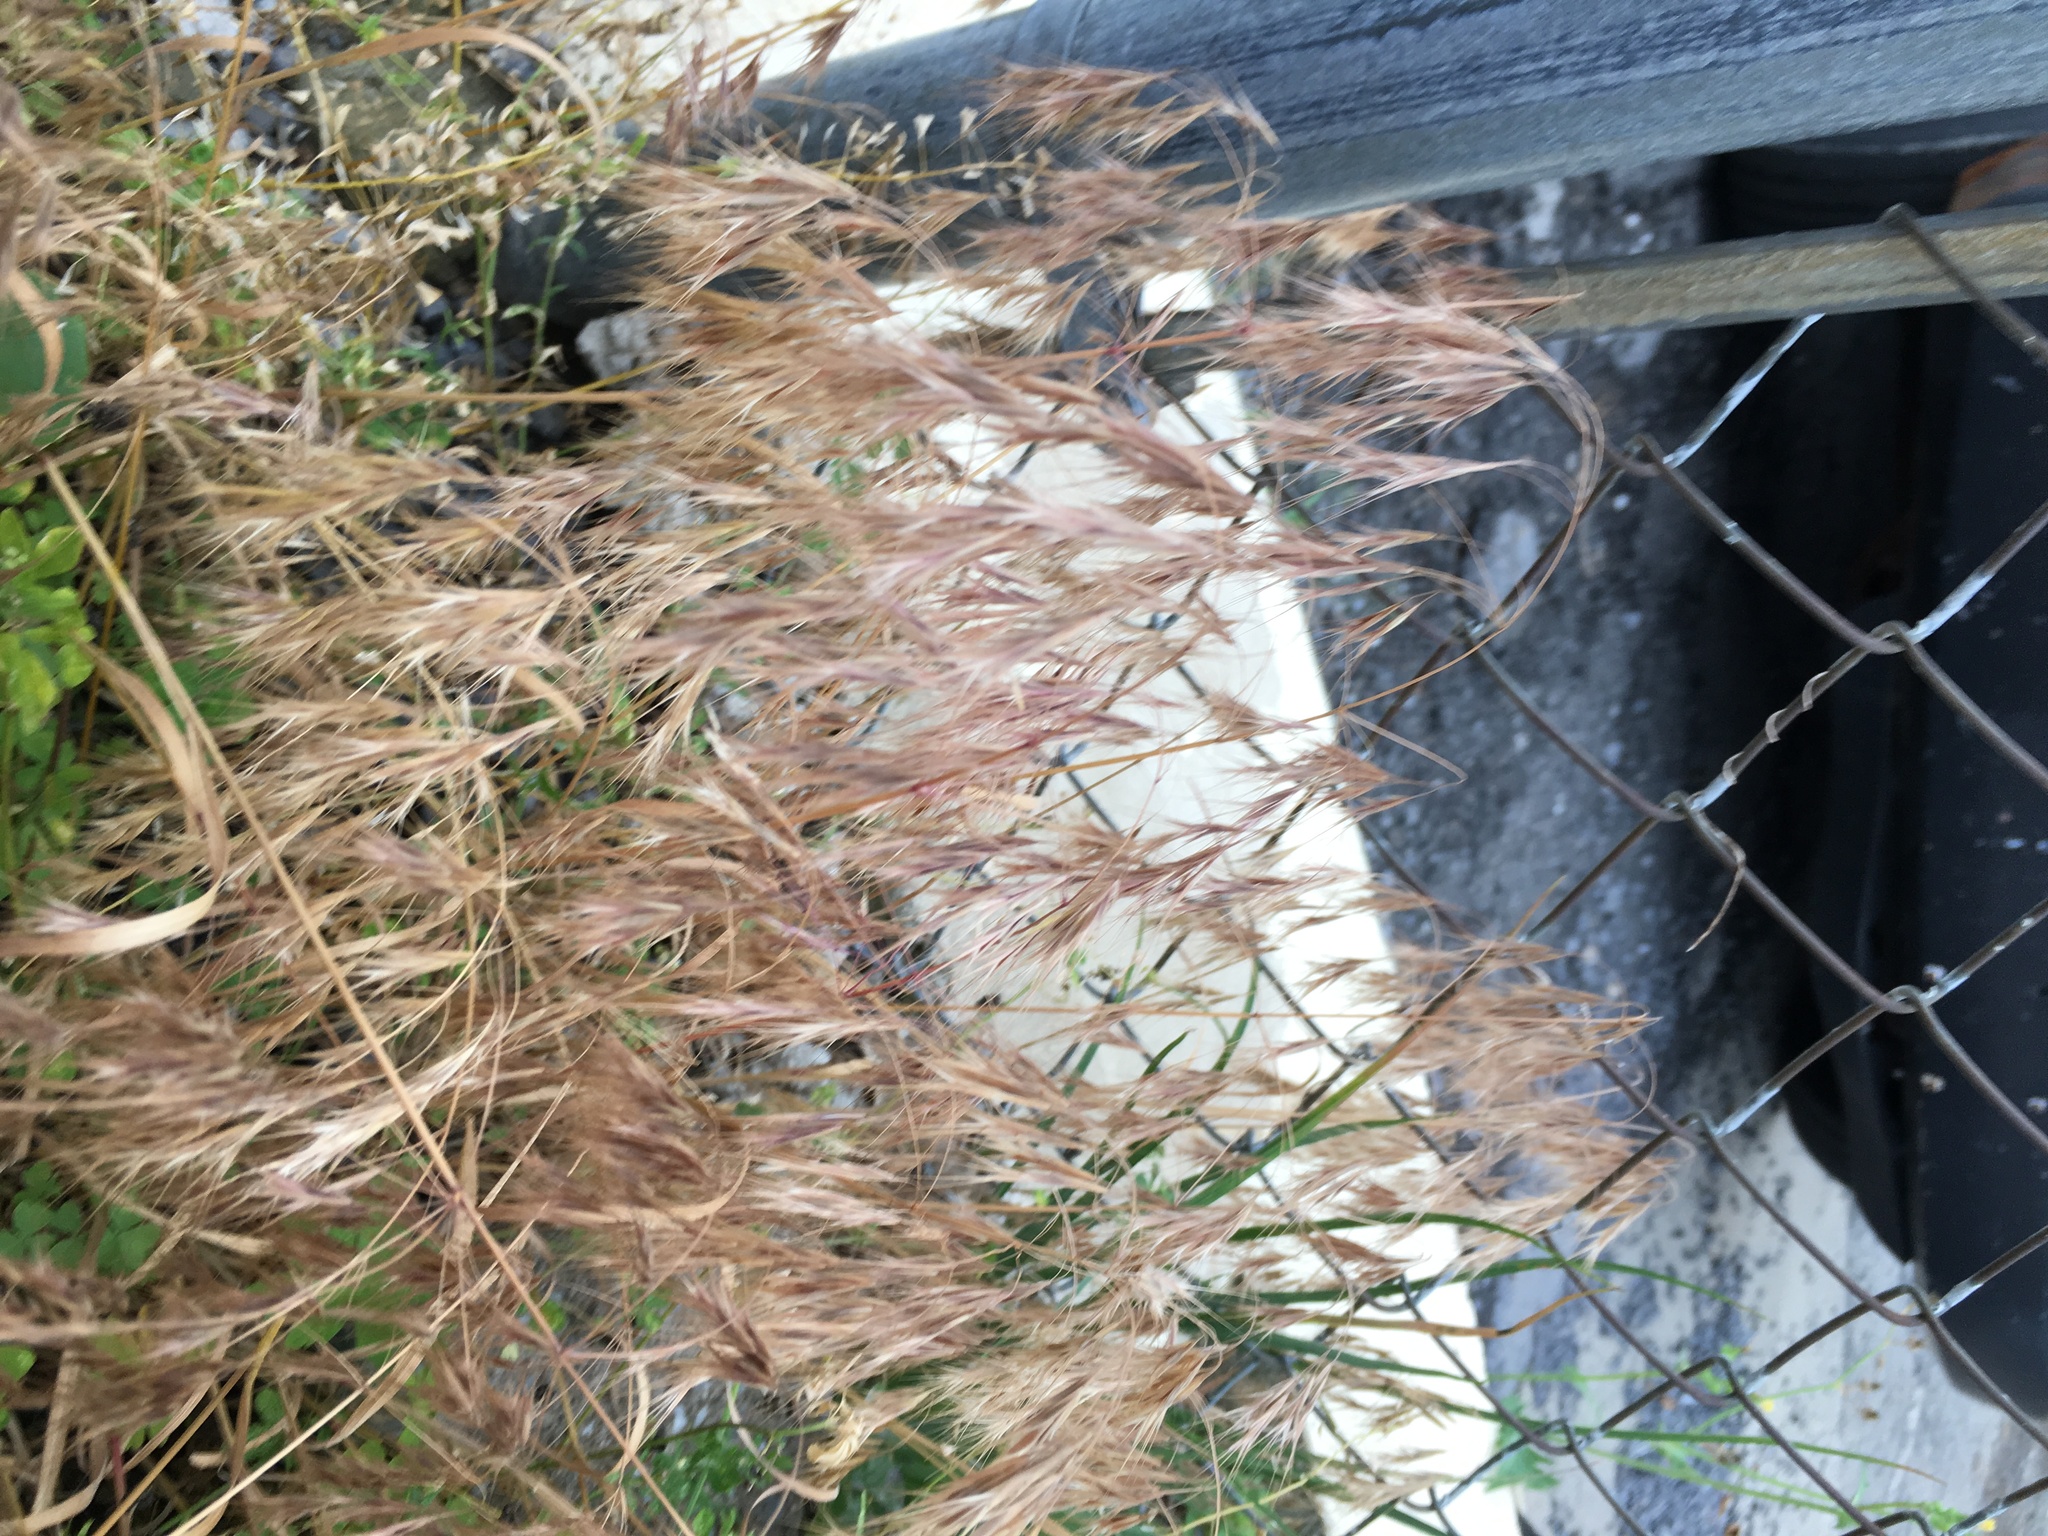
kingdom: Plantae
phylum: Tracheophyta
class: Liliopsida
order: Poales
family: Poaceae
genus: Bromus
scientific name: Bromus tectorum
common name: Cheatgrass
